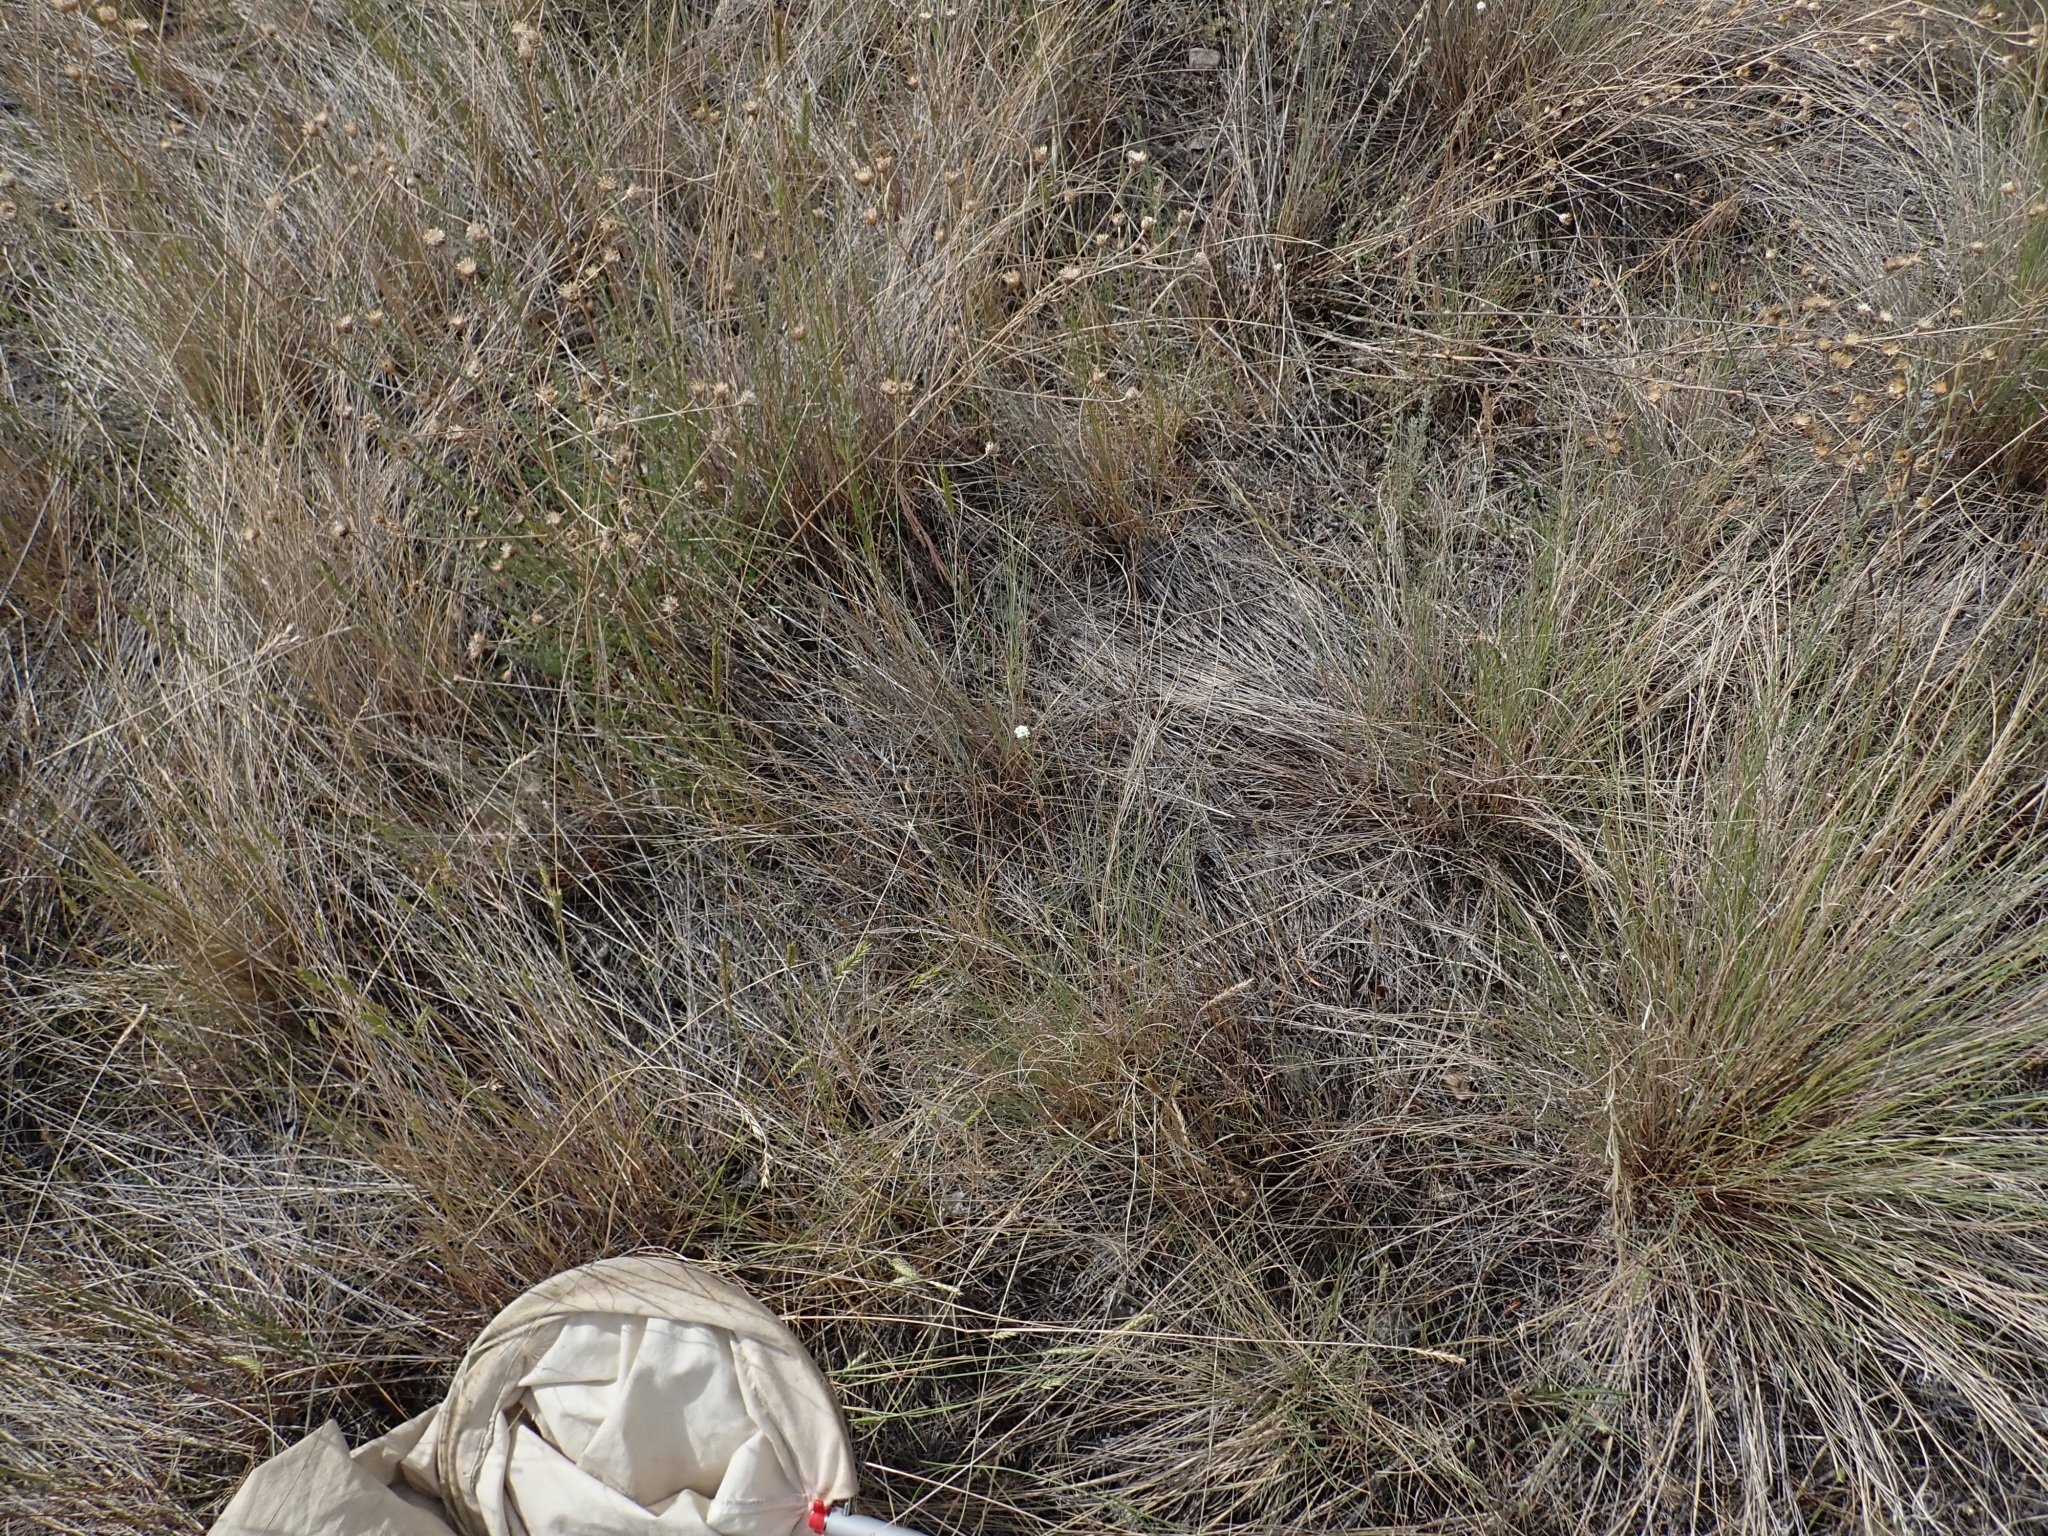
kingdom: Plantae
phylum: Tracheophyta
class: Magnoliopsida
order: Brassicales
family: Brassicaceae
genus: Berteroa
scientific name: Berteroa incana
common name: Hoary alison
